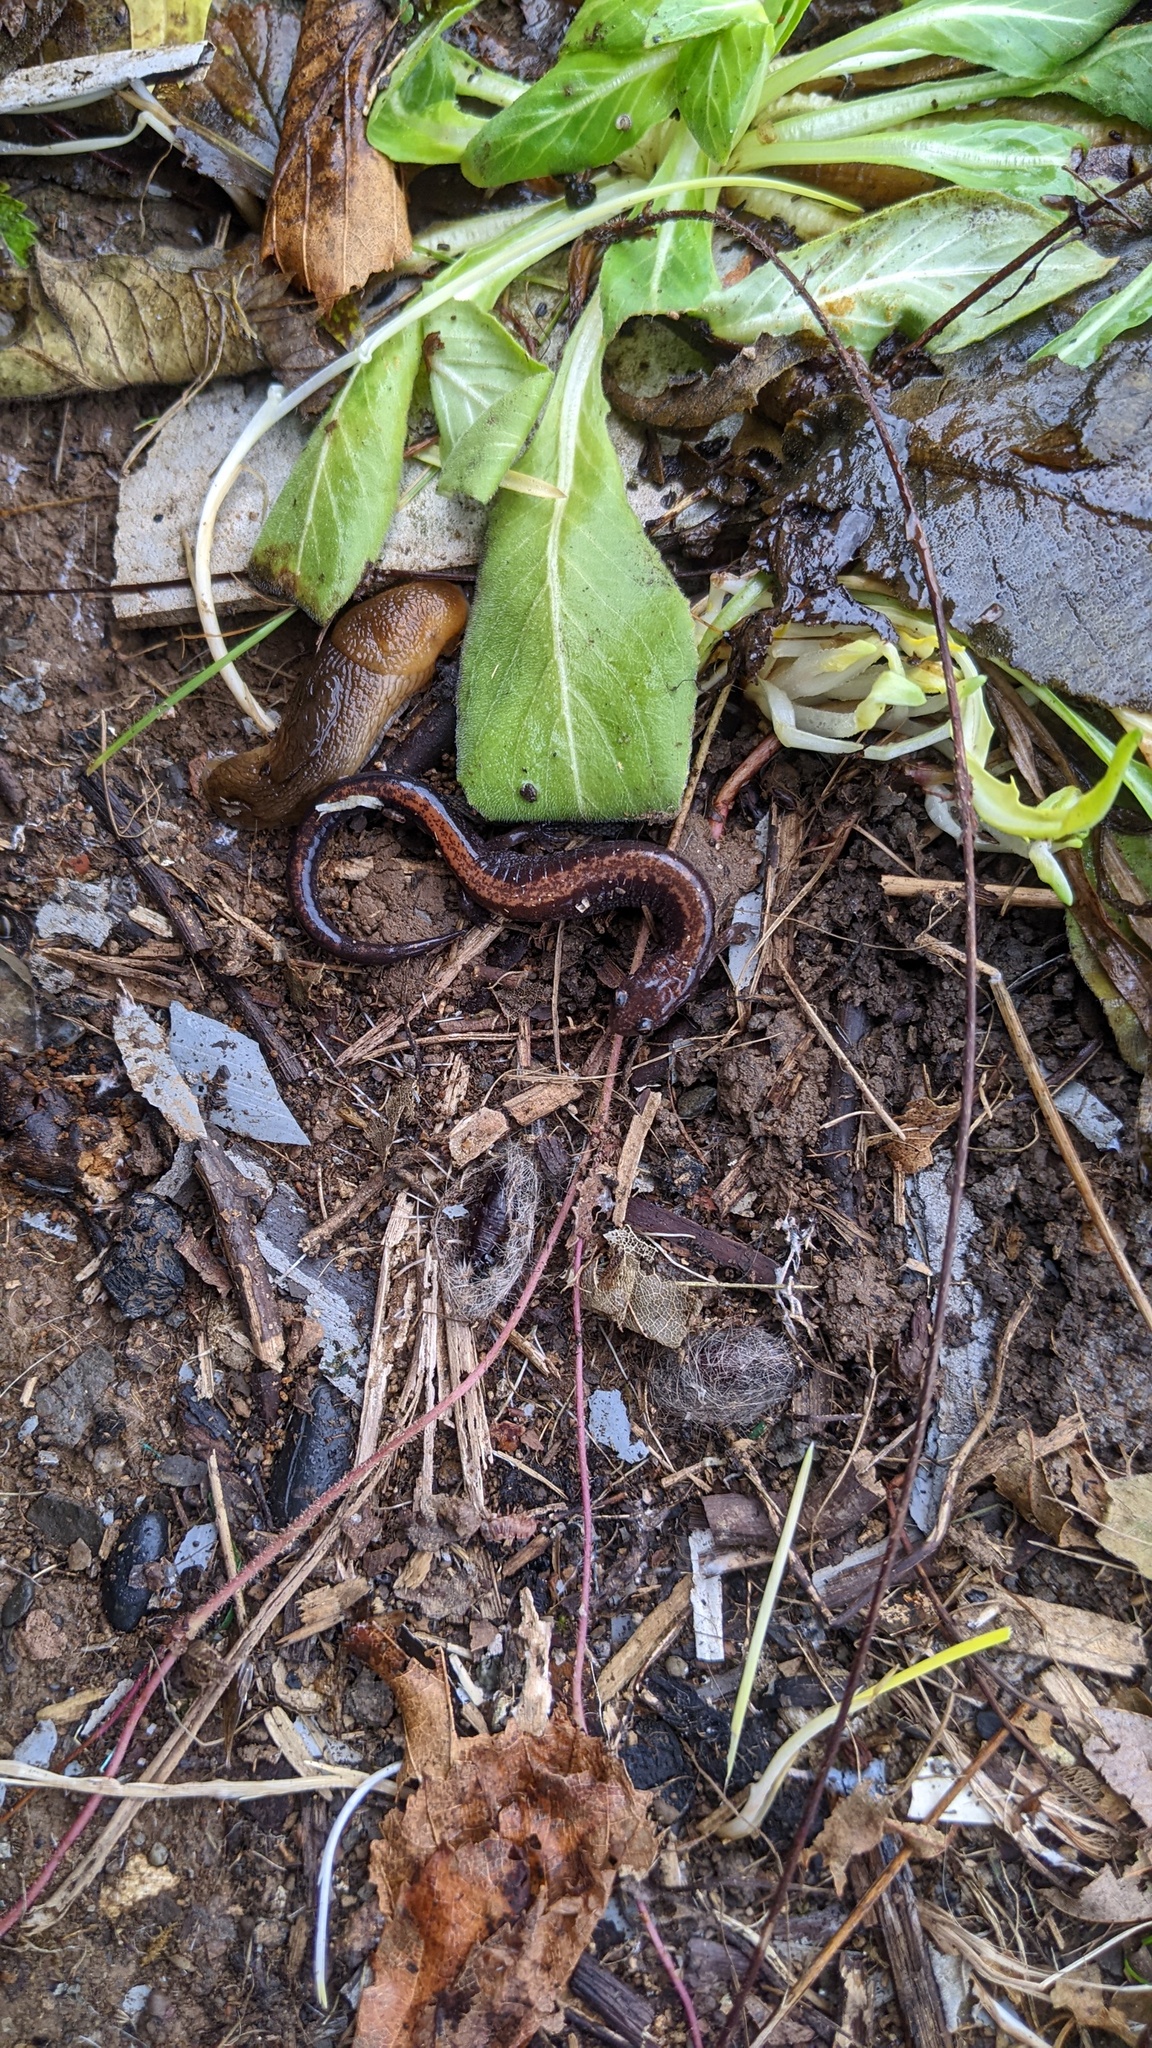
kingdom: Animalia
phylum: Chordata
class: Amphibia
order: Caudata
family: Plethodontidae
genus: Plethodon
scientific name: Plethodon cinereus
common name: Redback salamander
